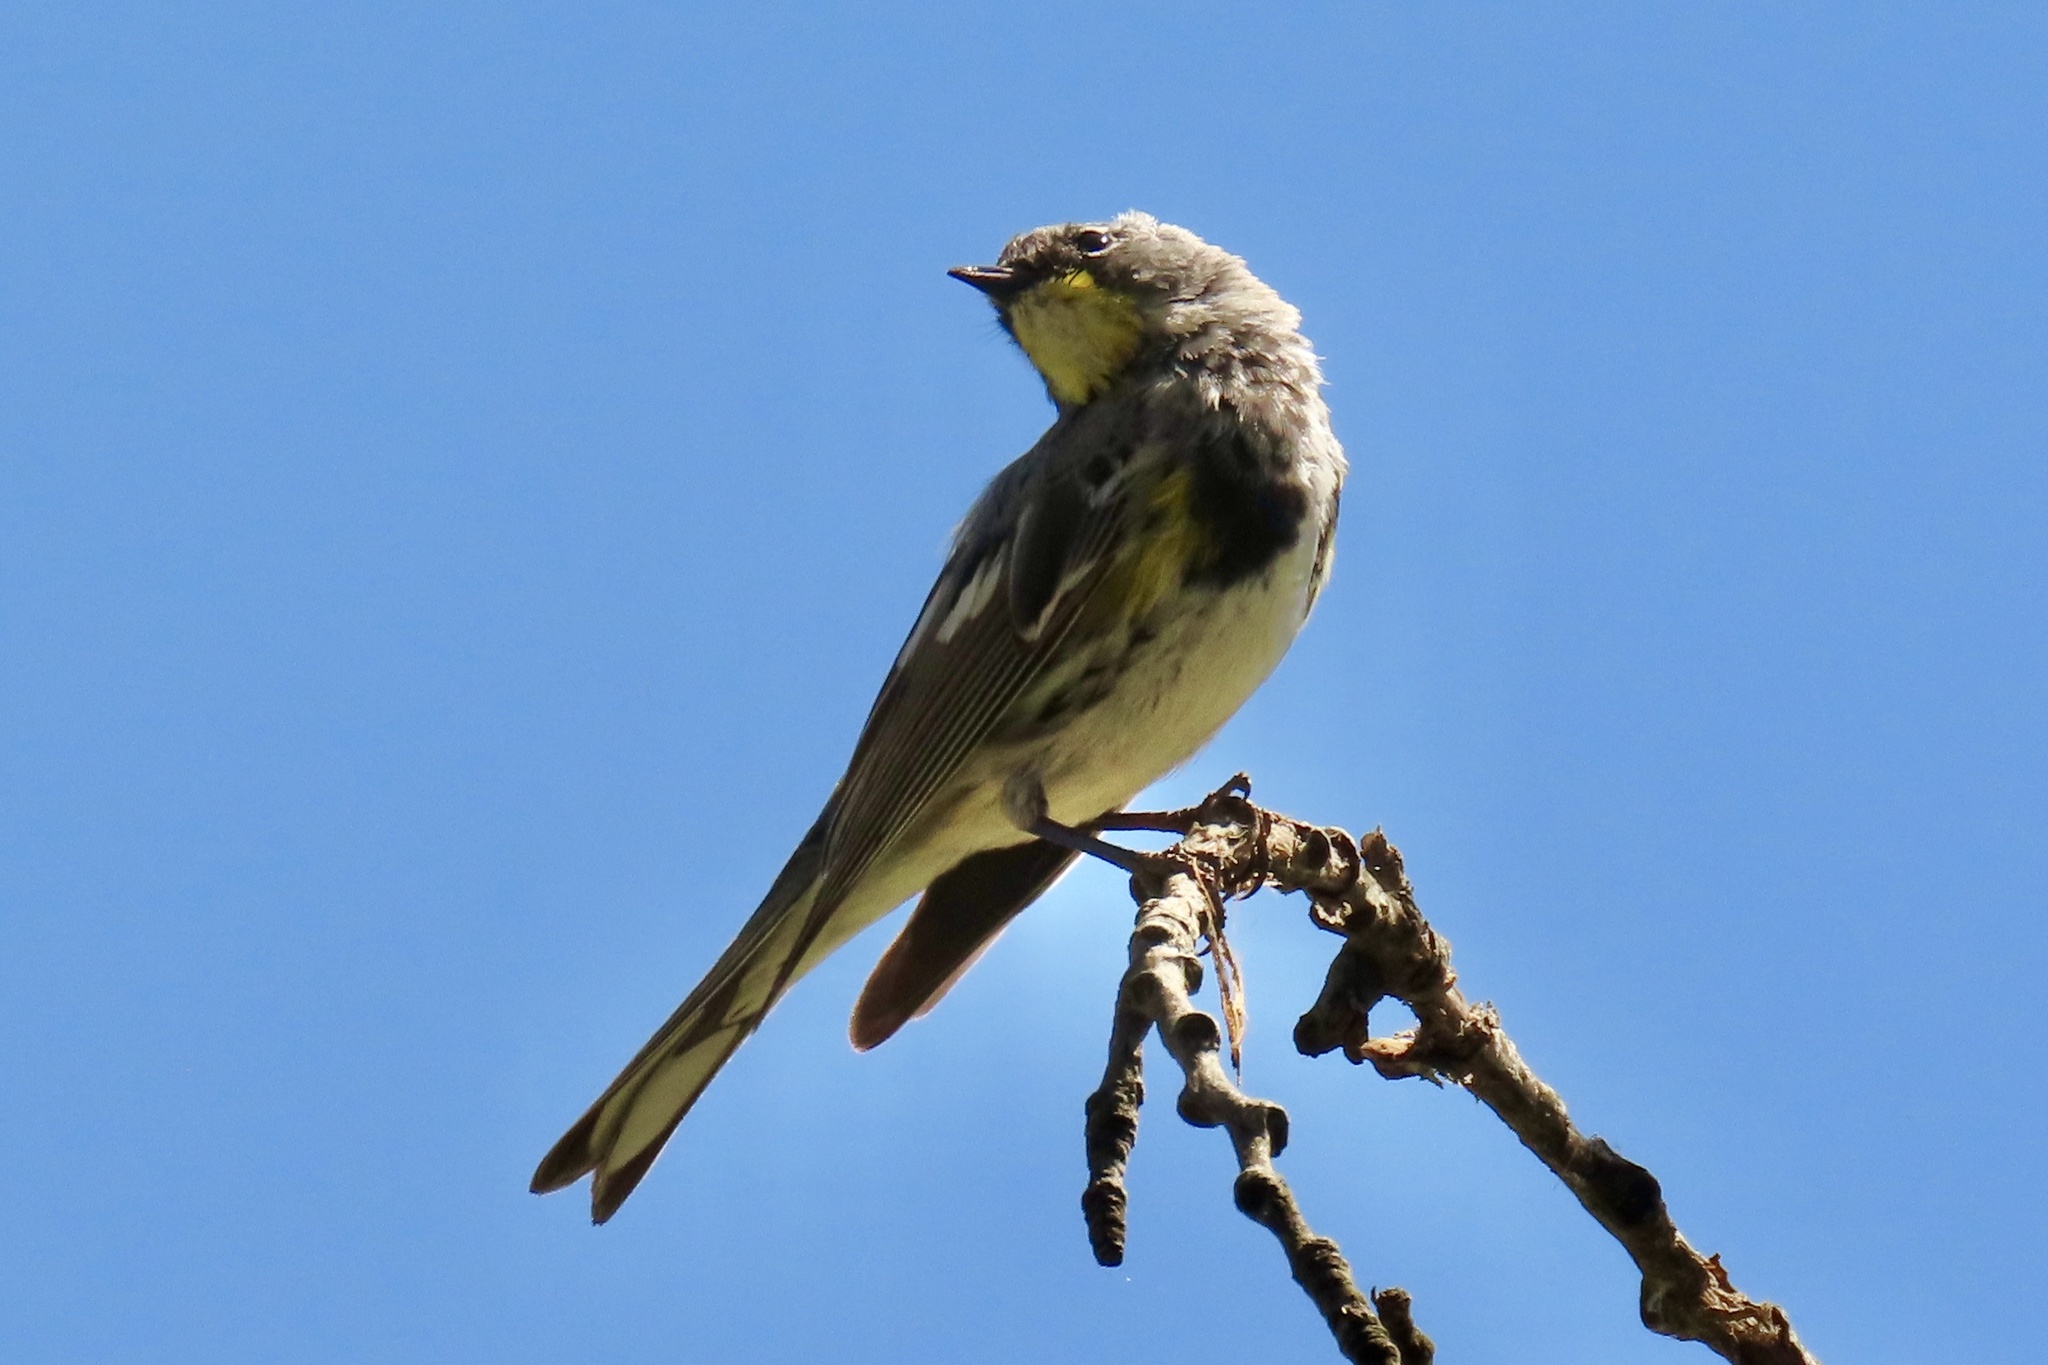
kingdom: Animalia
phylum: Chordata
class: Aves
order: Passeriformes
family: Parulidae
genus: Setophaga
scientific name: Setophaga coronata
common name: Myrtle warbler
